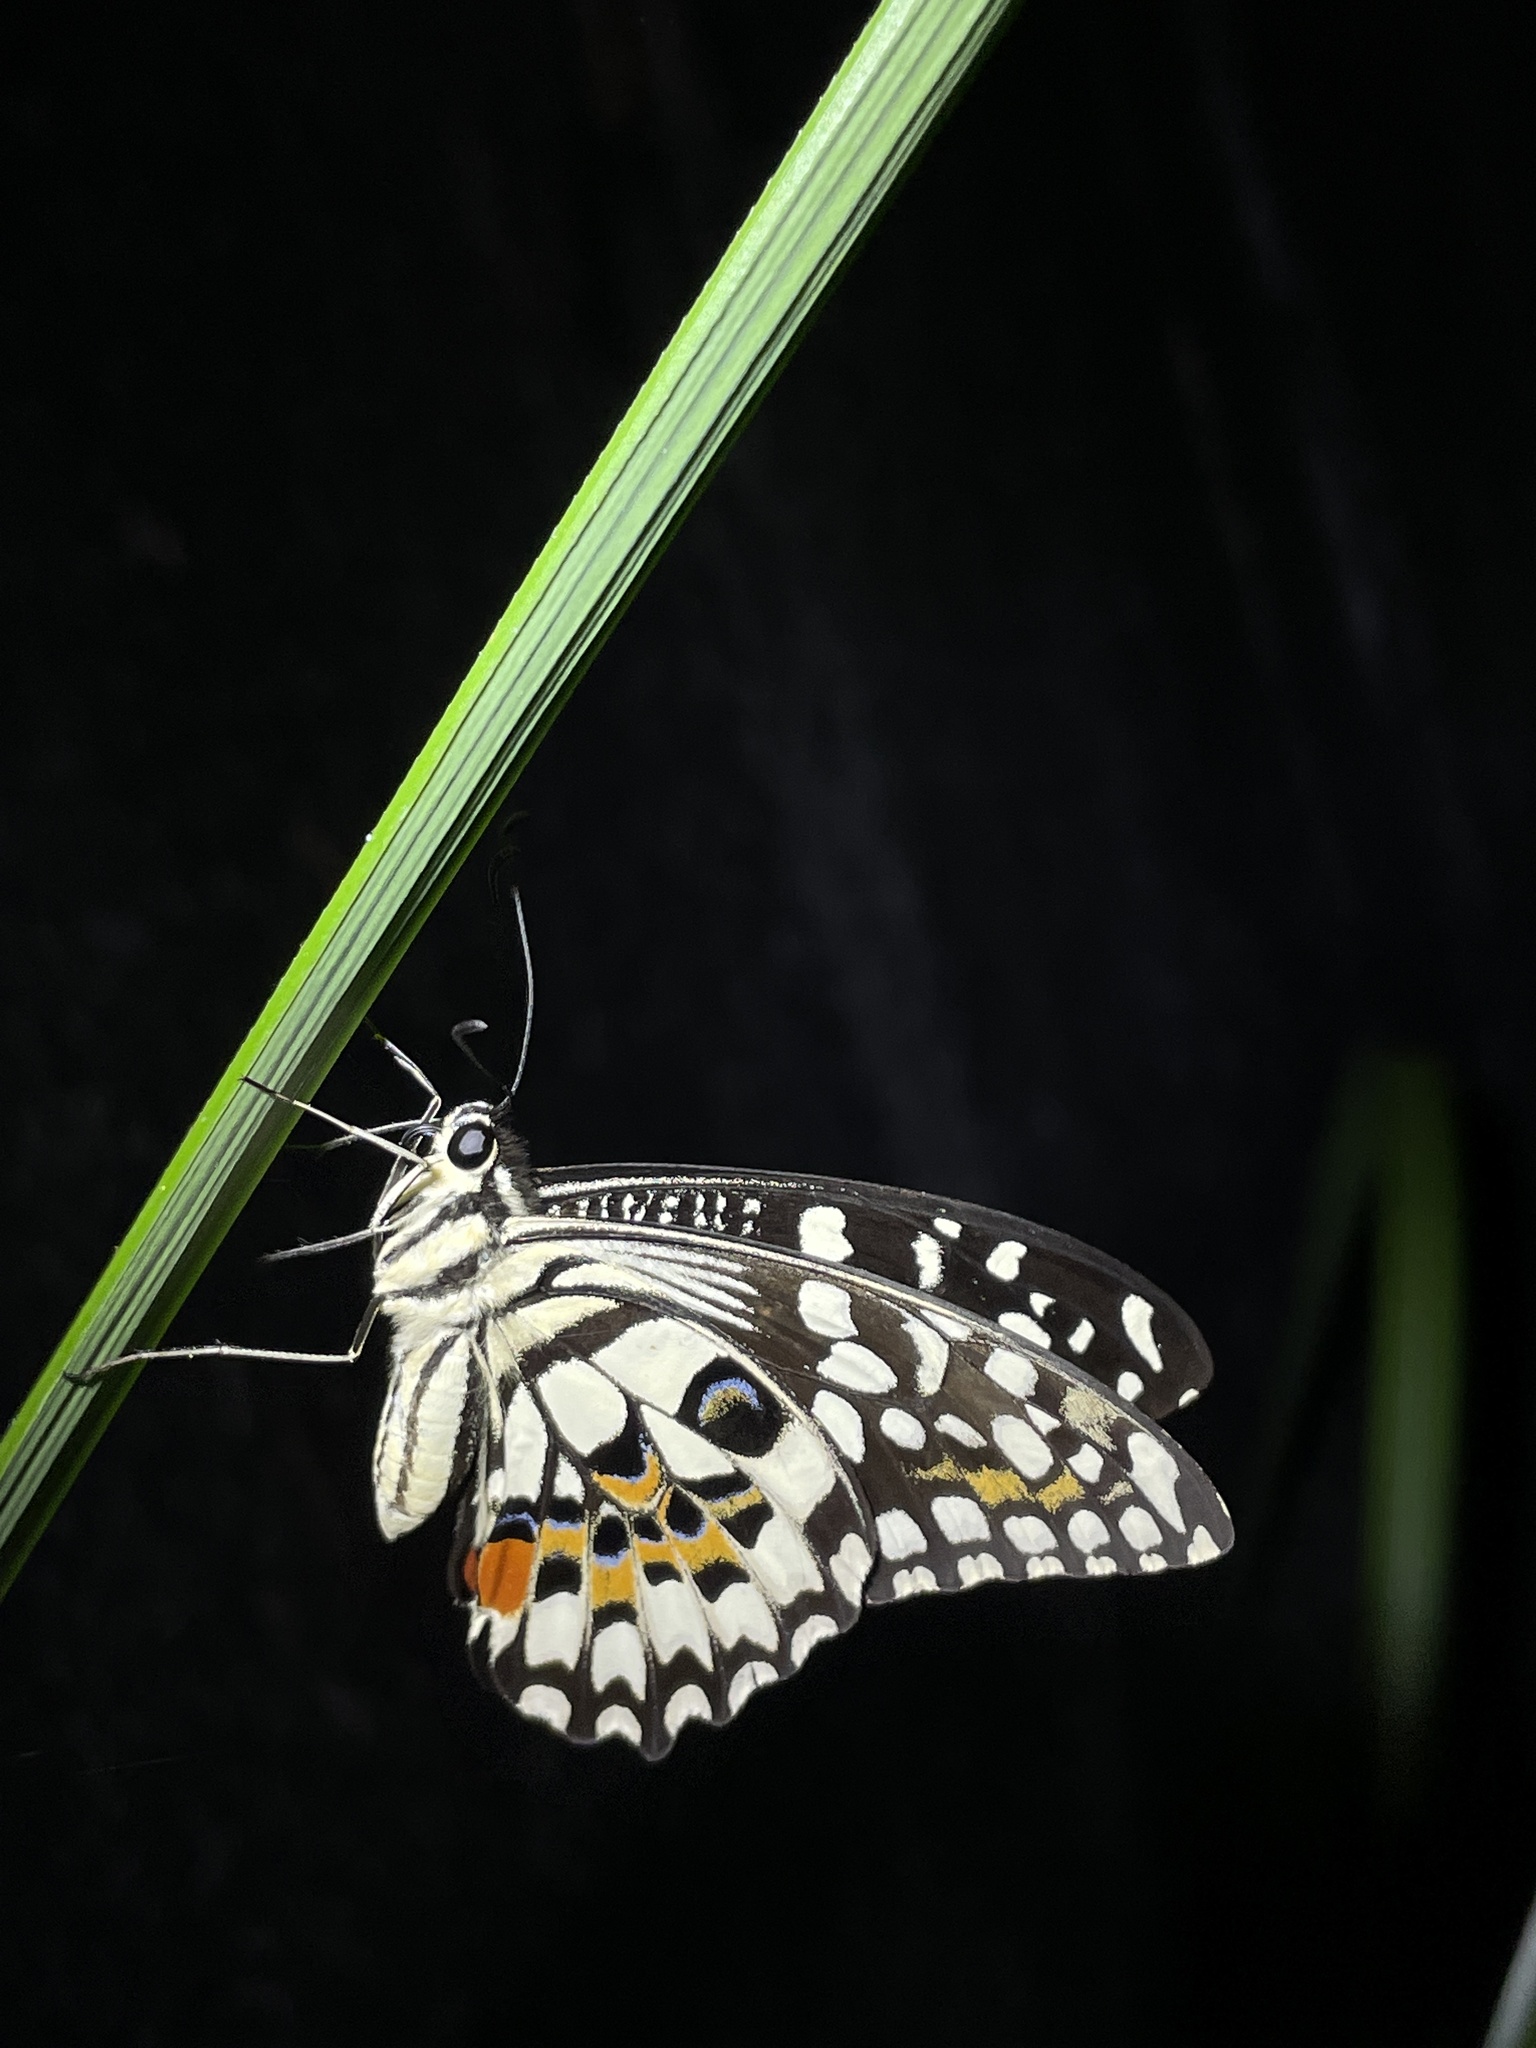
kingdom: Animalia
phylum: Arthropoda
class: Insecta
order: Lepidoptera
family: Papilionidae
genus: Papilio
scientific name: Papilio demoleus
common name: Lime butterfly
